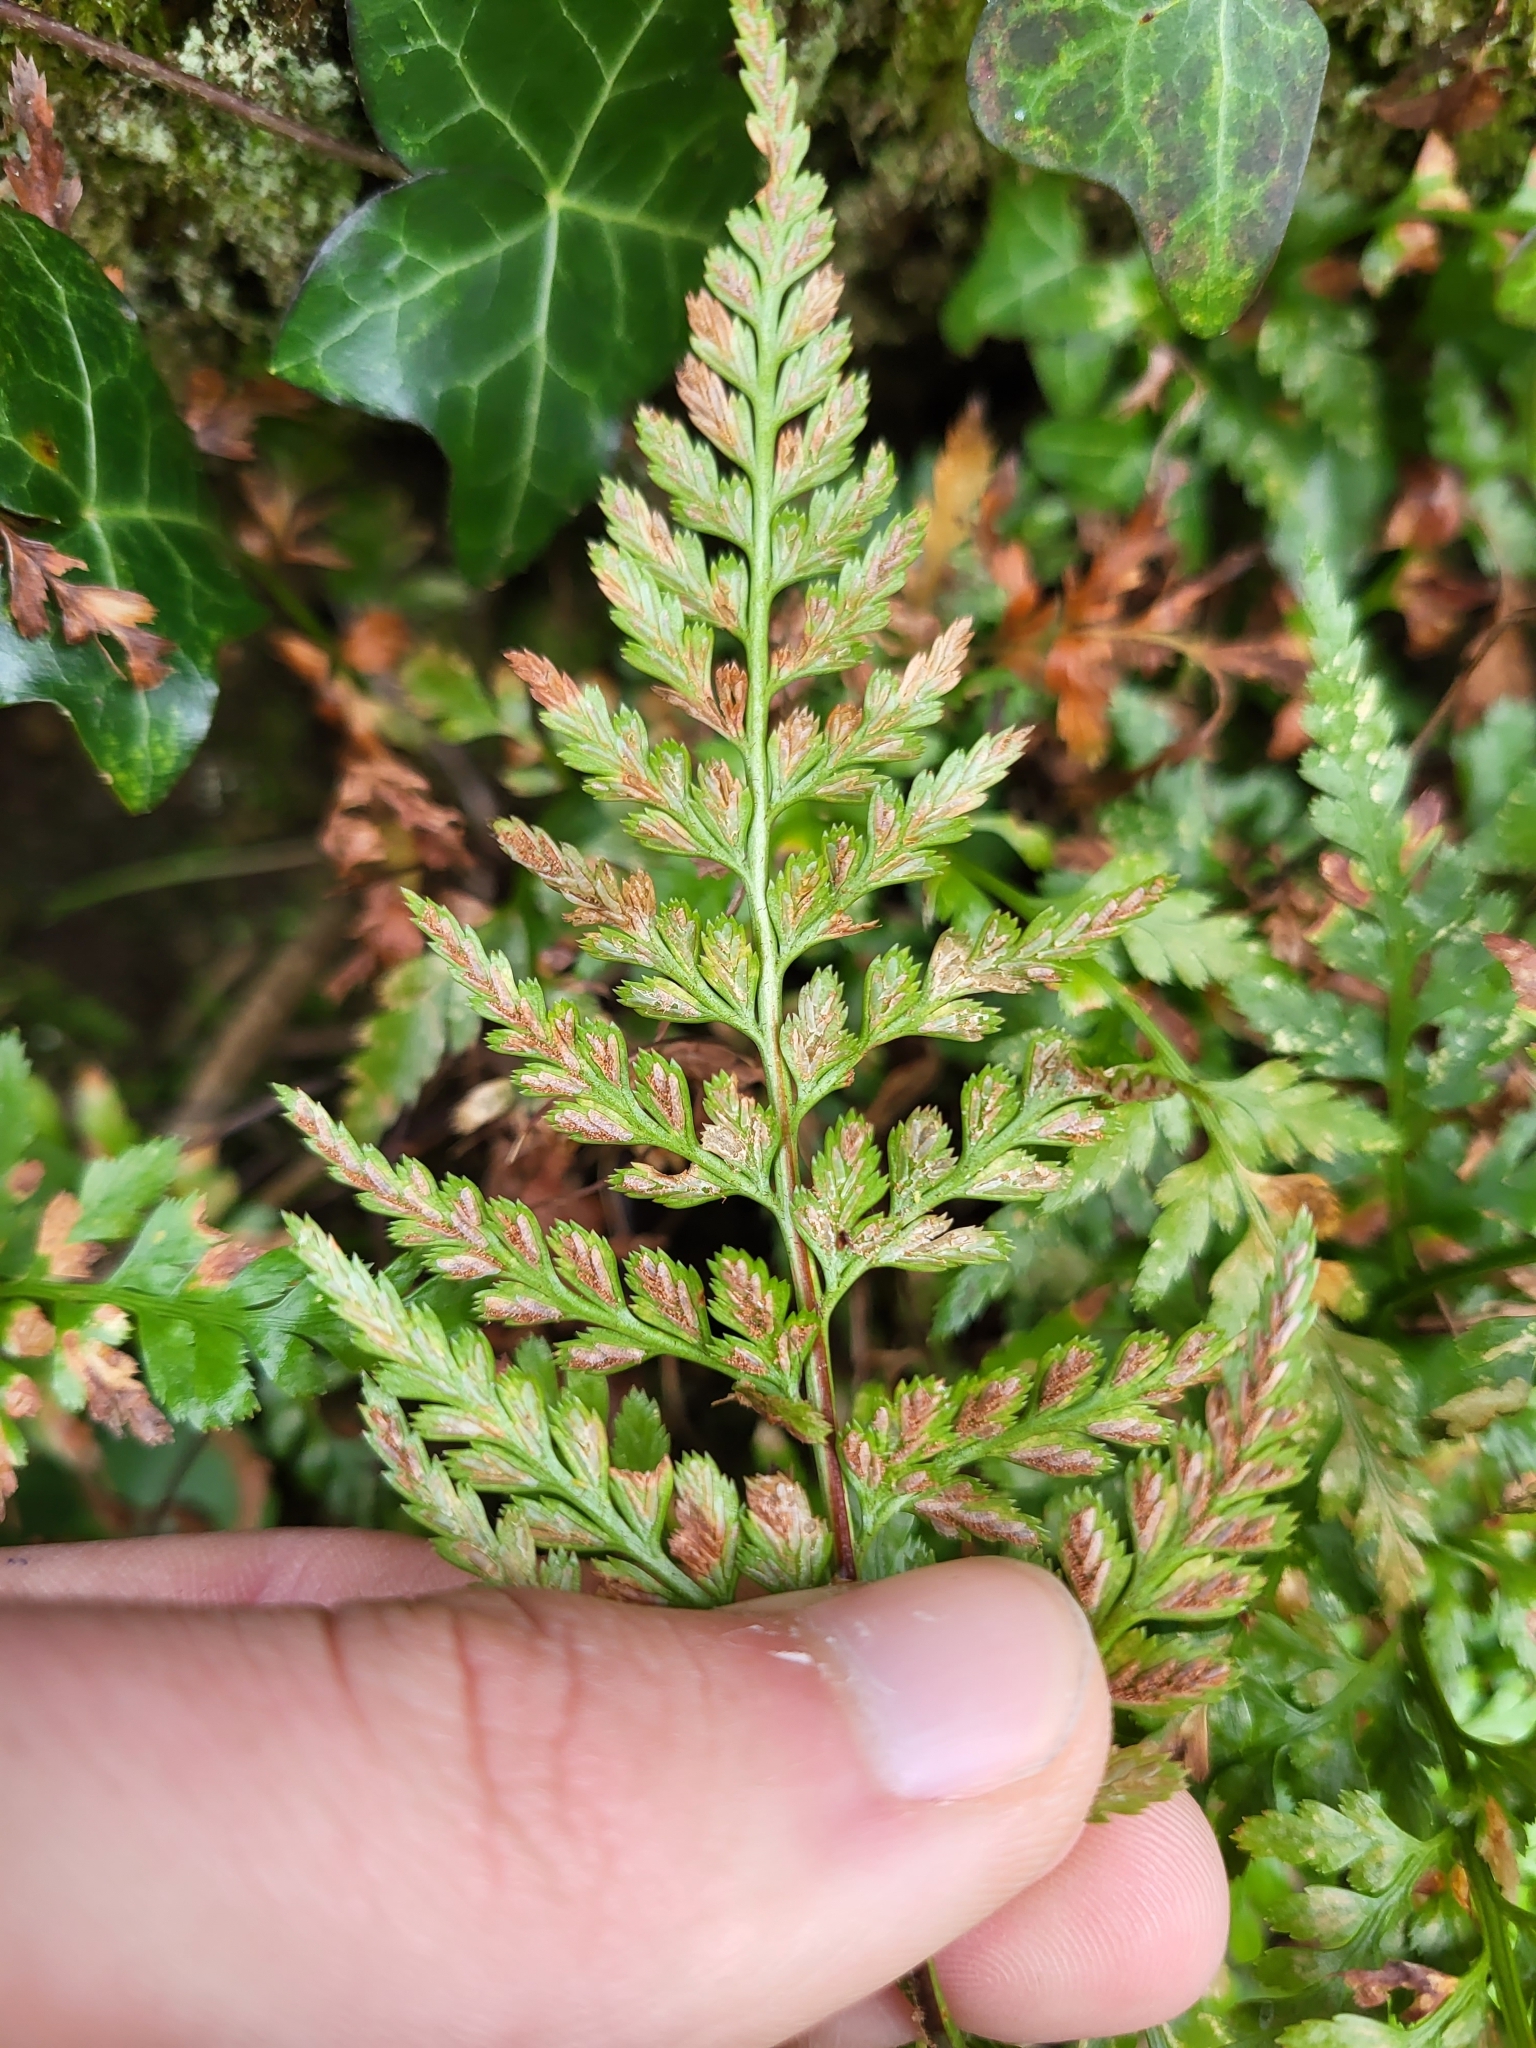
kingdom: Plantae
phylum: Tracheophyta
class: Polypodiopsida
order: Polypodiales
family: Aspleniaceae
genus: Asplenium
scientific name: Asplenium adiantum-nigrum
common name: Black spleenwort
